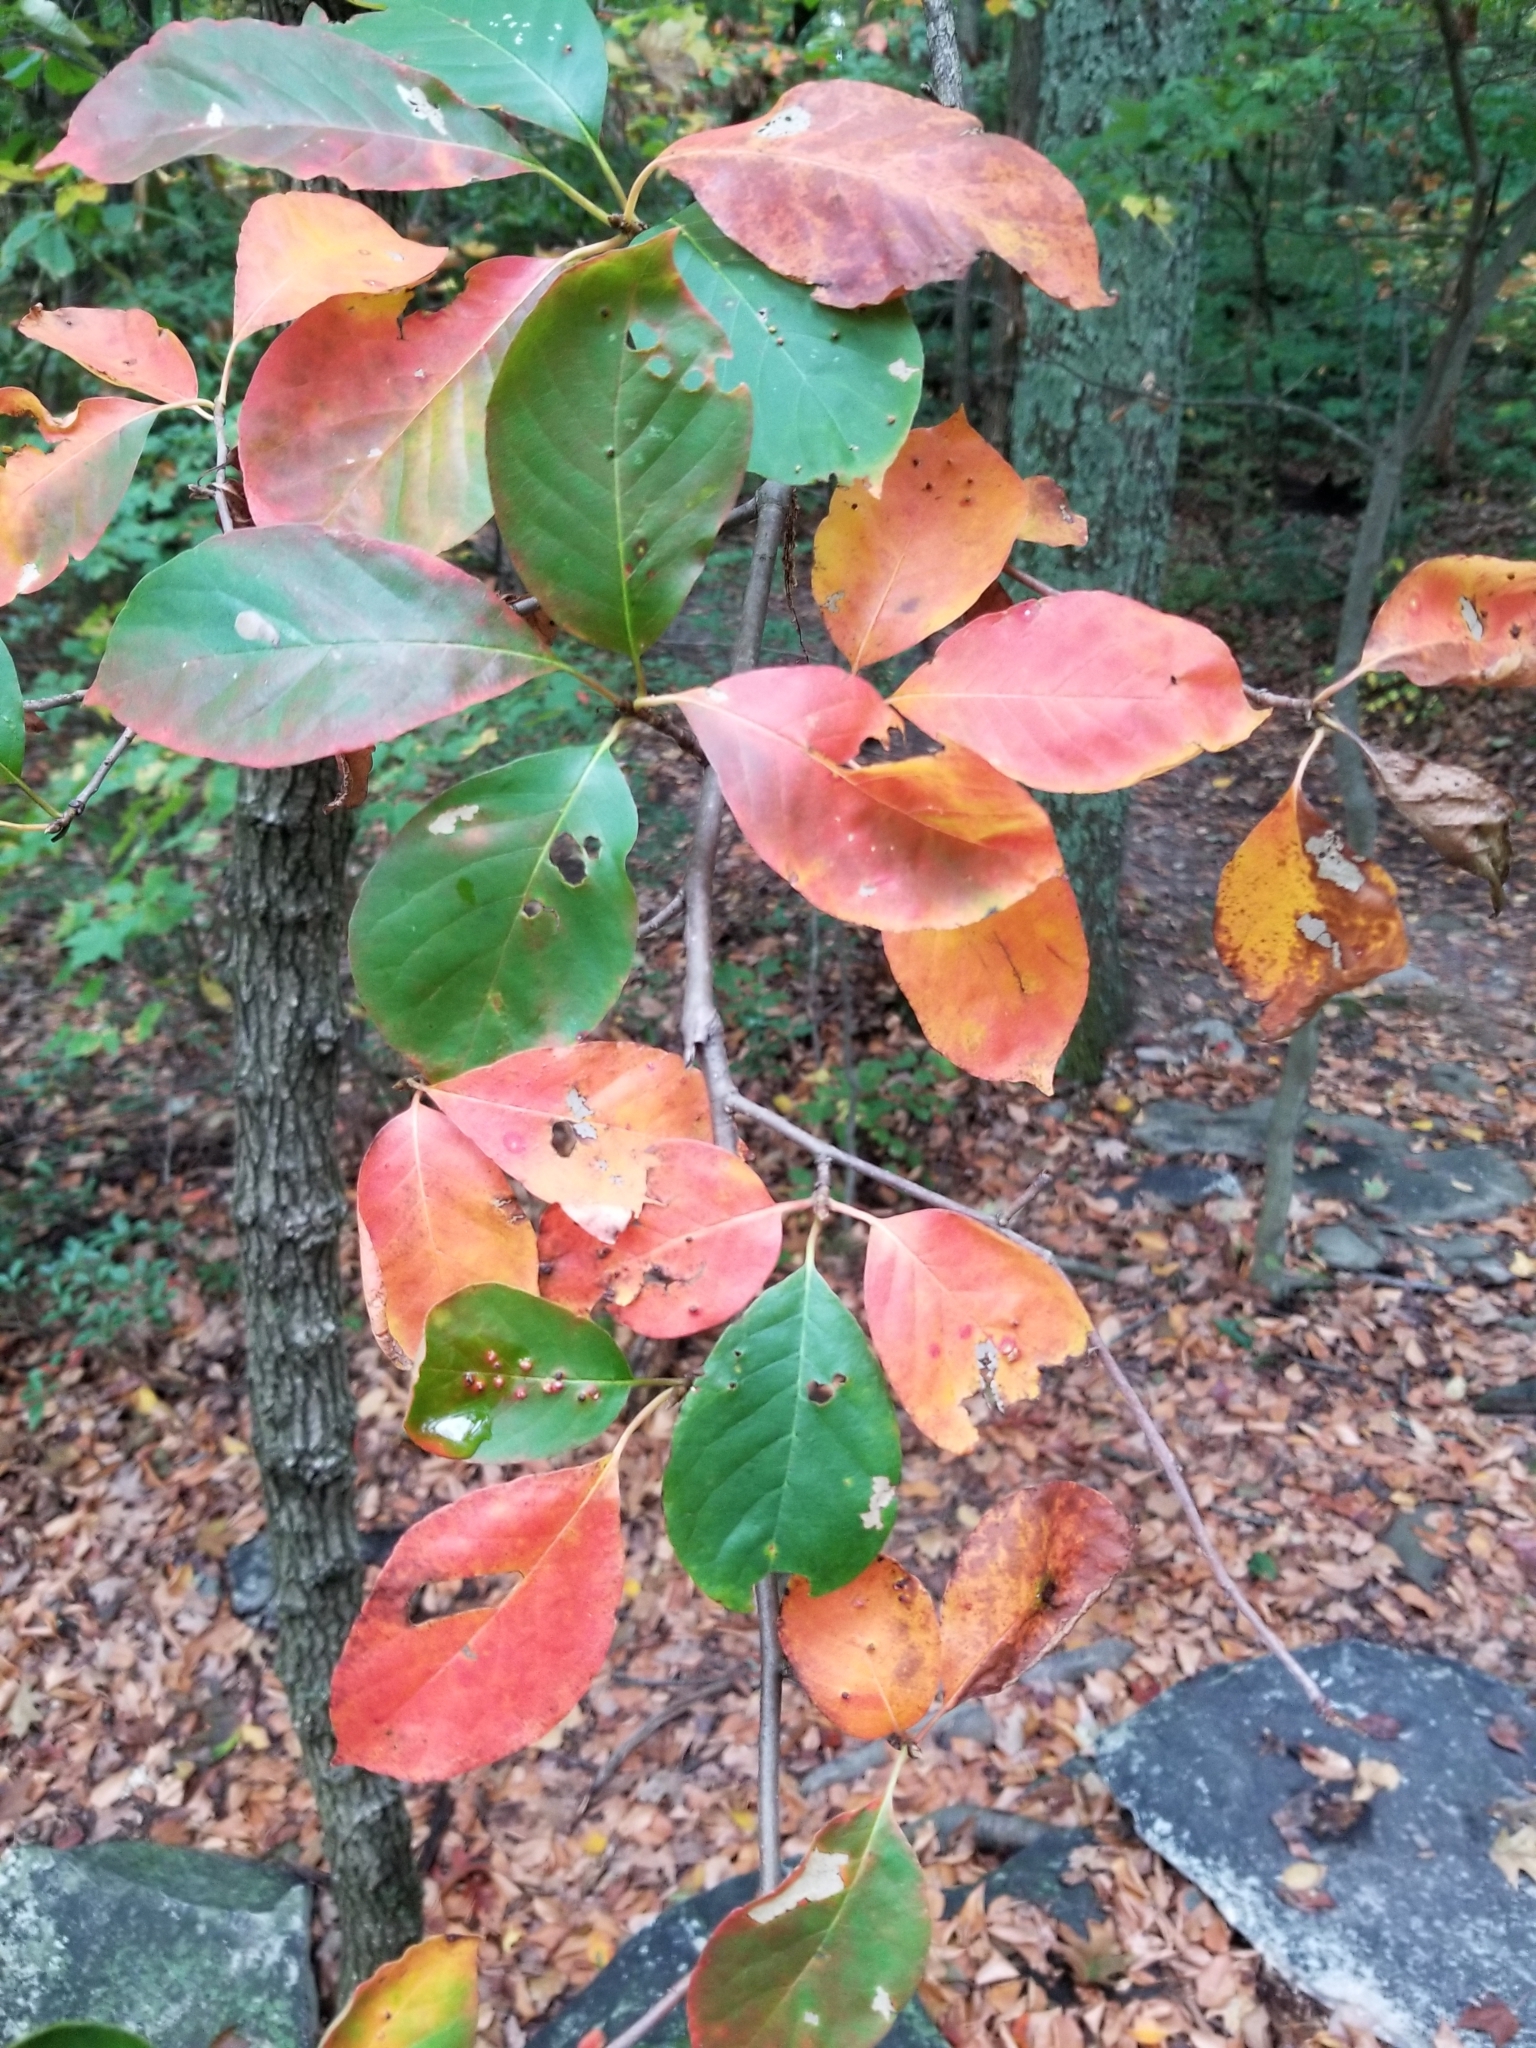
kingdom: Plantae
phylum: Tracheophyta
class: Magnoliopsida
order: Cornales
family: Nyssaceae
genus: Nyssa
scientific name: Nyssa sylvatica
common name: Black tupelo
